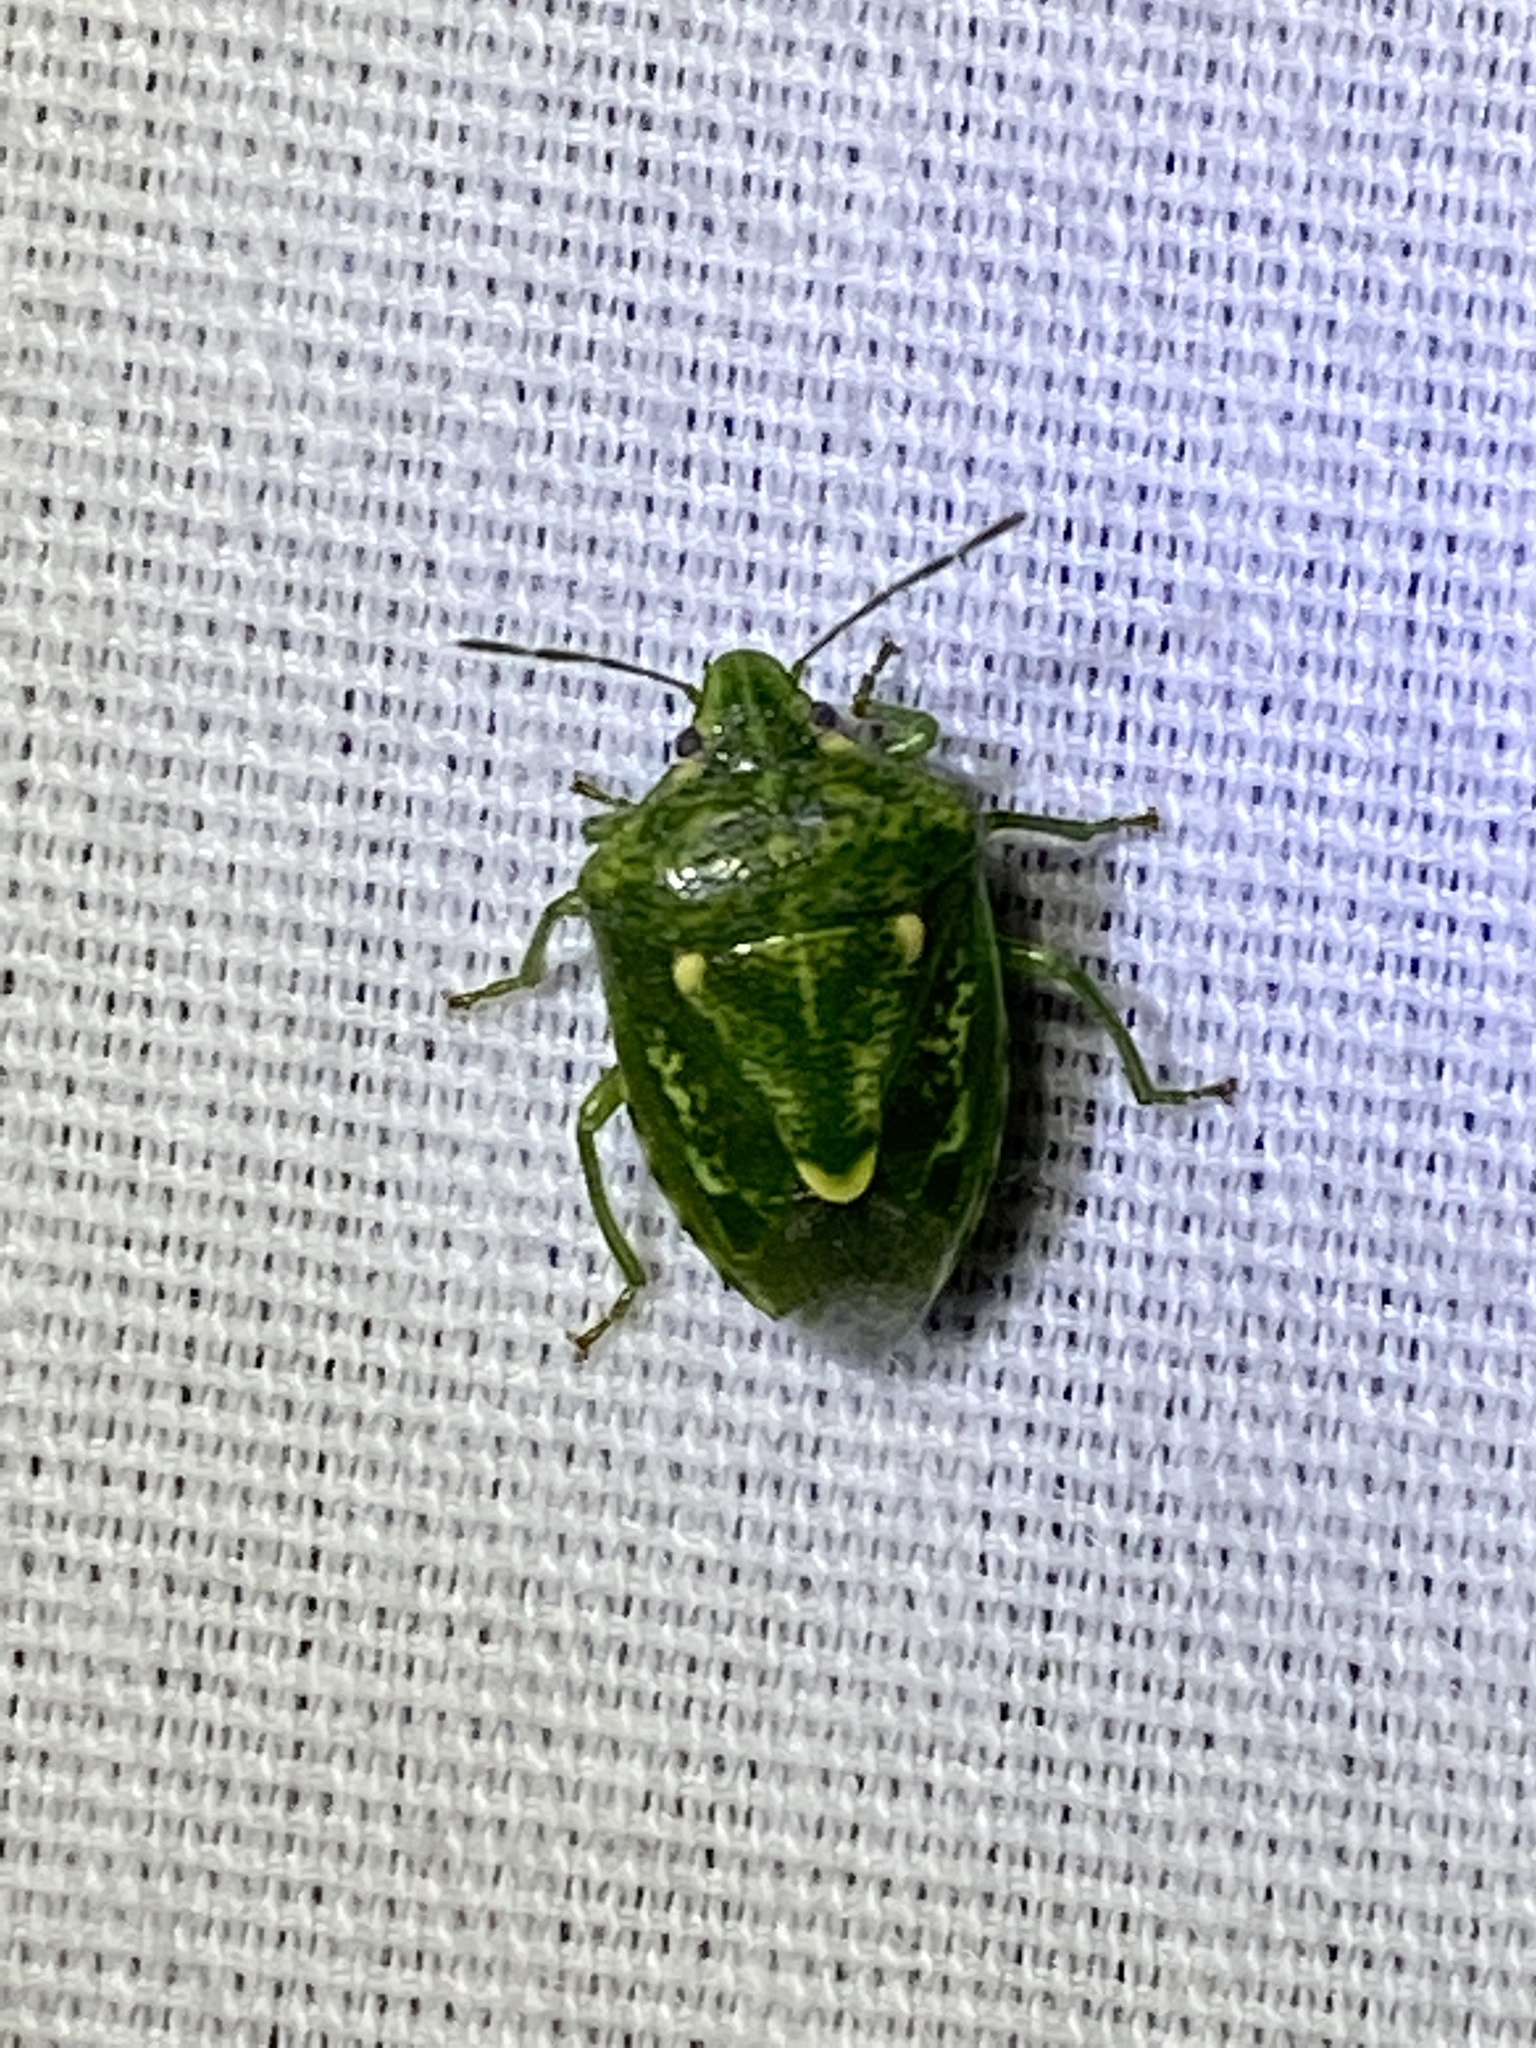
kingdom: Animalia
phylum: Arthropoda
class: Insecta
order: Hemiptera
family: Pentatomidae
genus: Banasa
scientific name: Banasa euchlora
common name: Cedar berry bug
